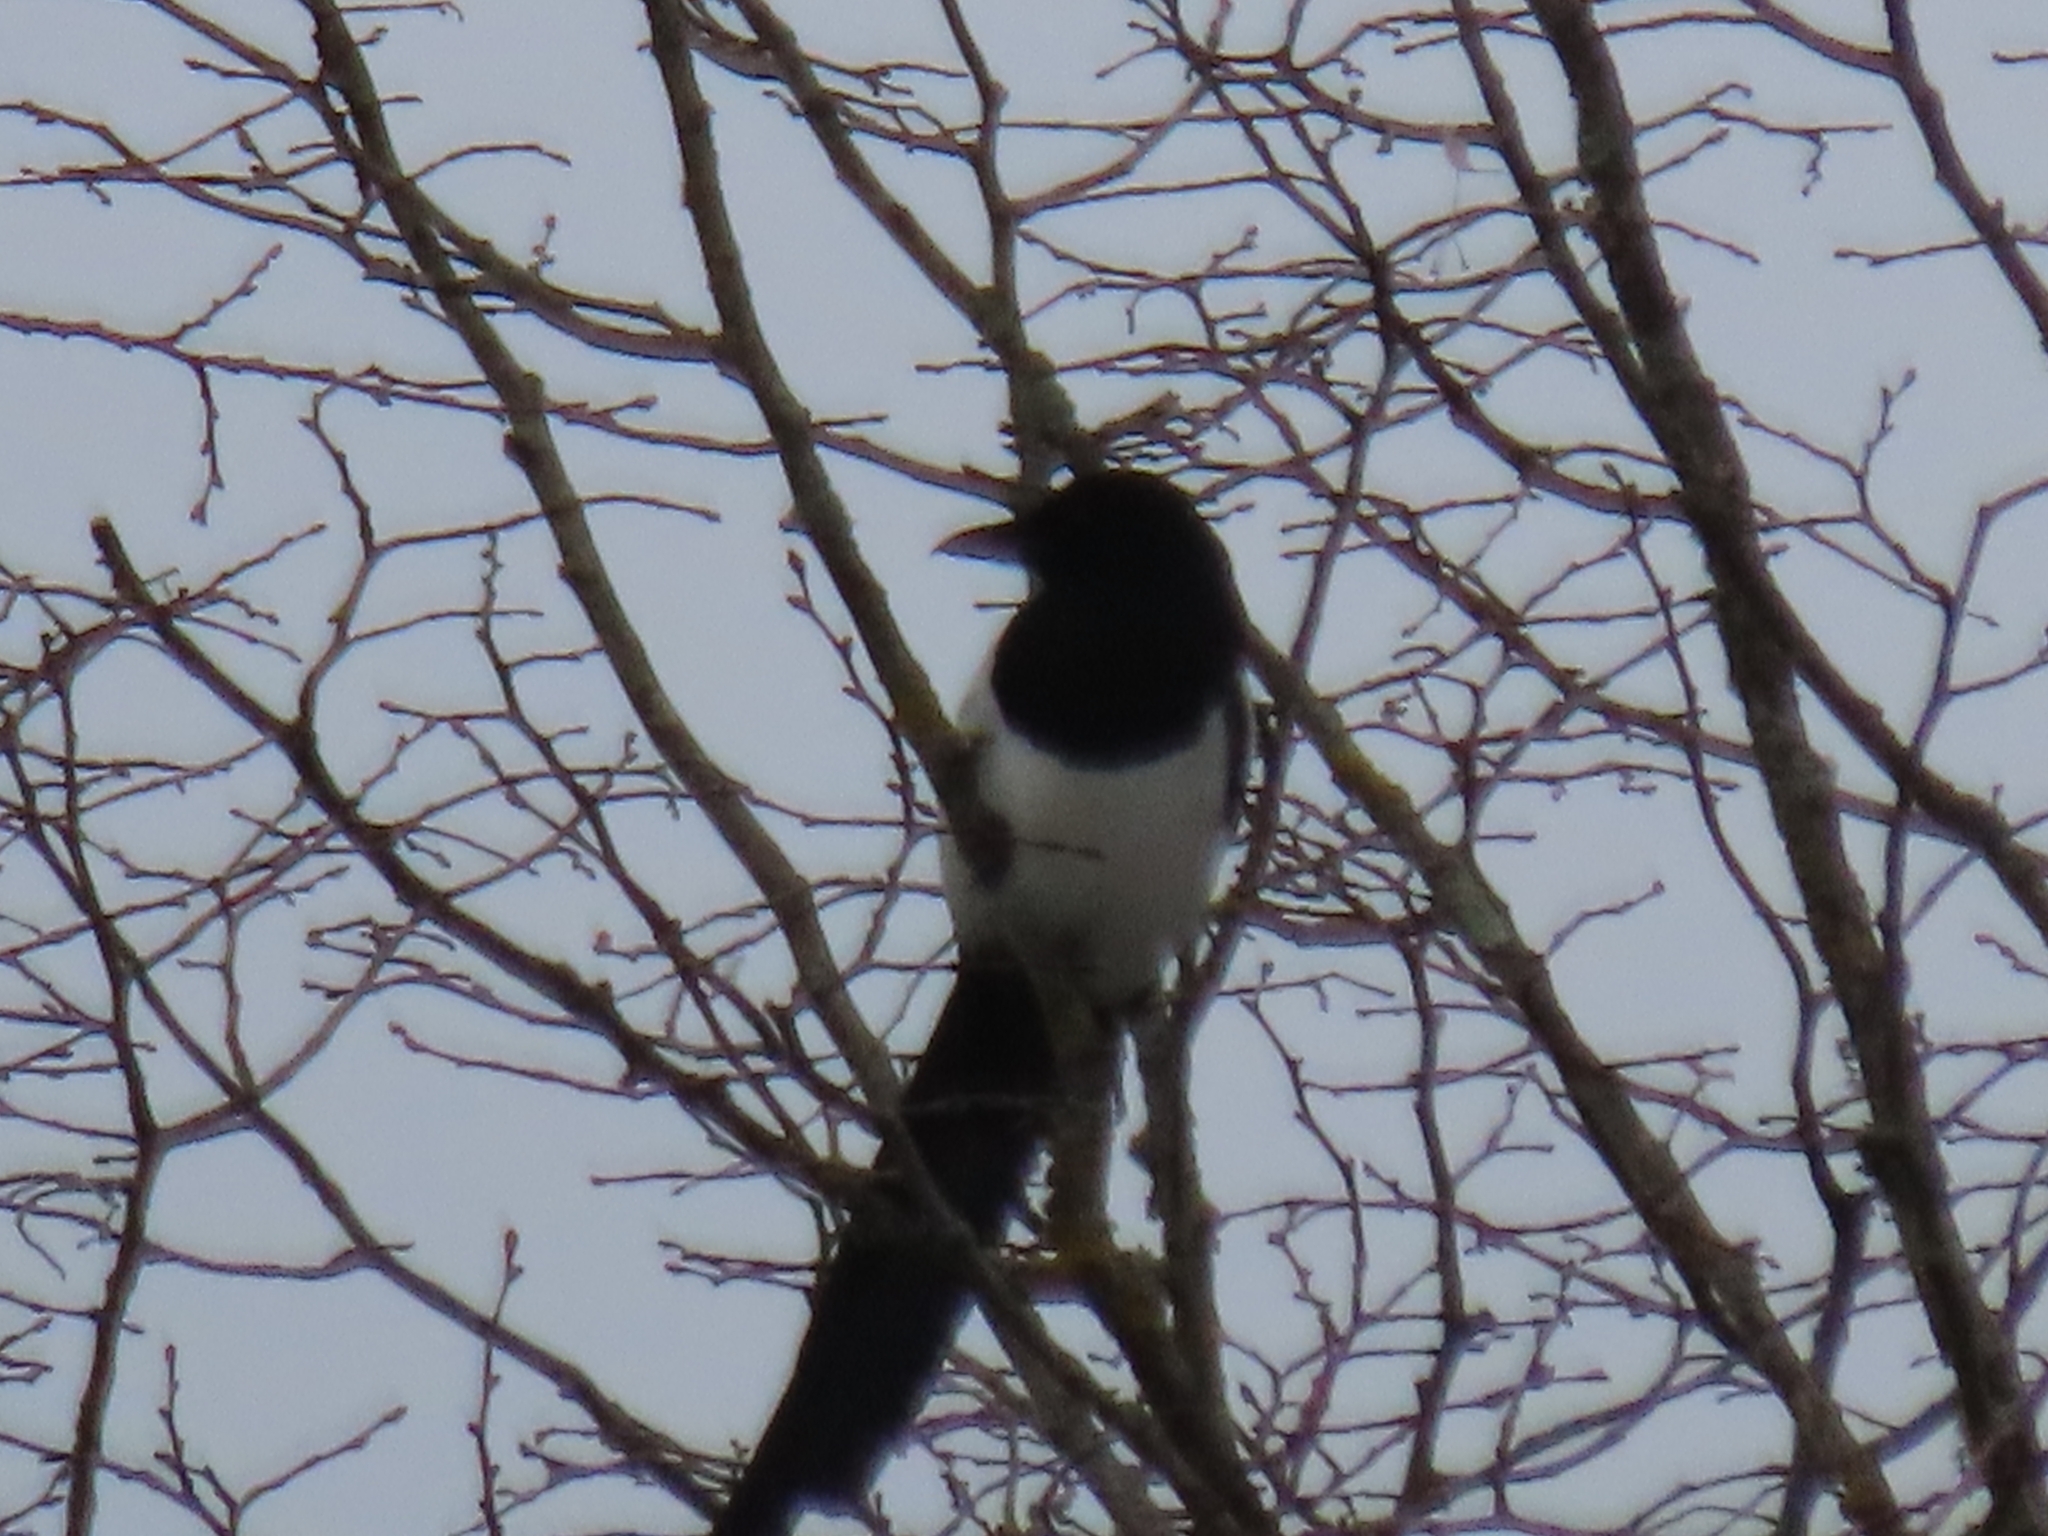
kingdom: Animalia
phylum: Chordata
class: Aves
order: Passeriformes
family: Corvidae
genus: Pica
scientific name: Pica pica
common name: Eurasian magpie
